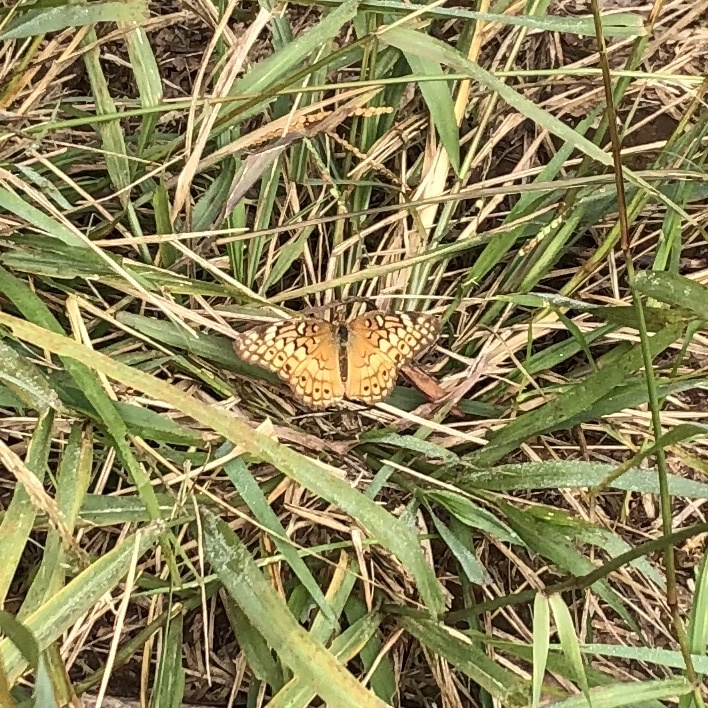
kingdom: Animalia
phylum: Arthropoda
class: Insecta
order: Lepidoptera
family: Nymphalidae
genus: Euptoieta
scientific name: Euptoieta claudia
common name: Variegated fritillary
